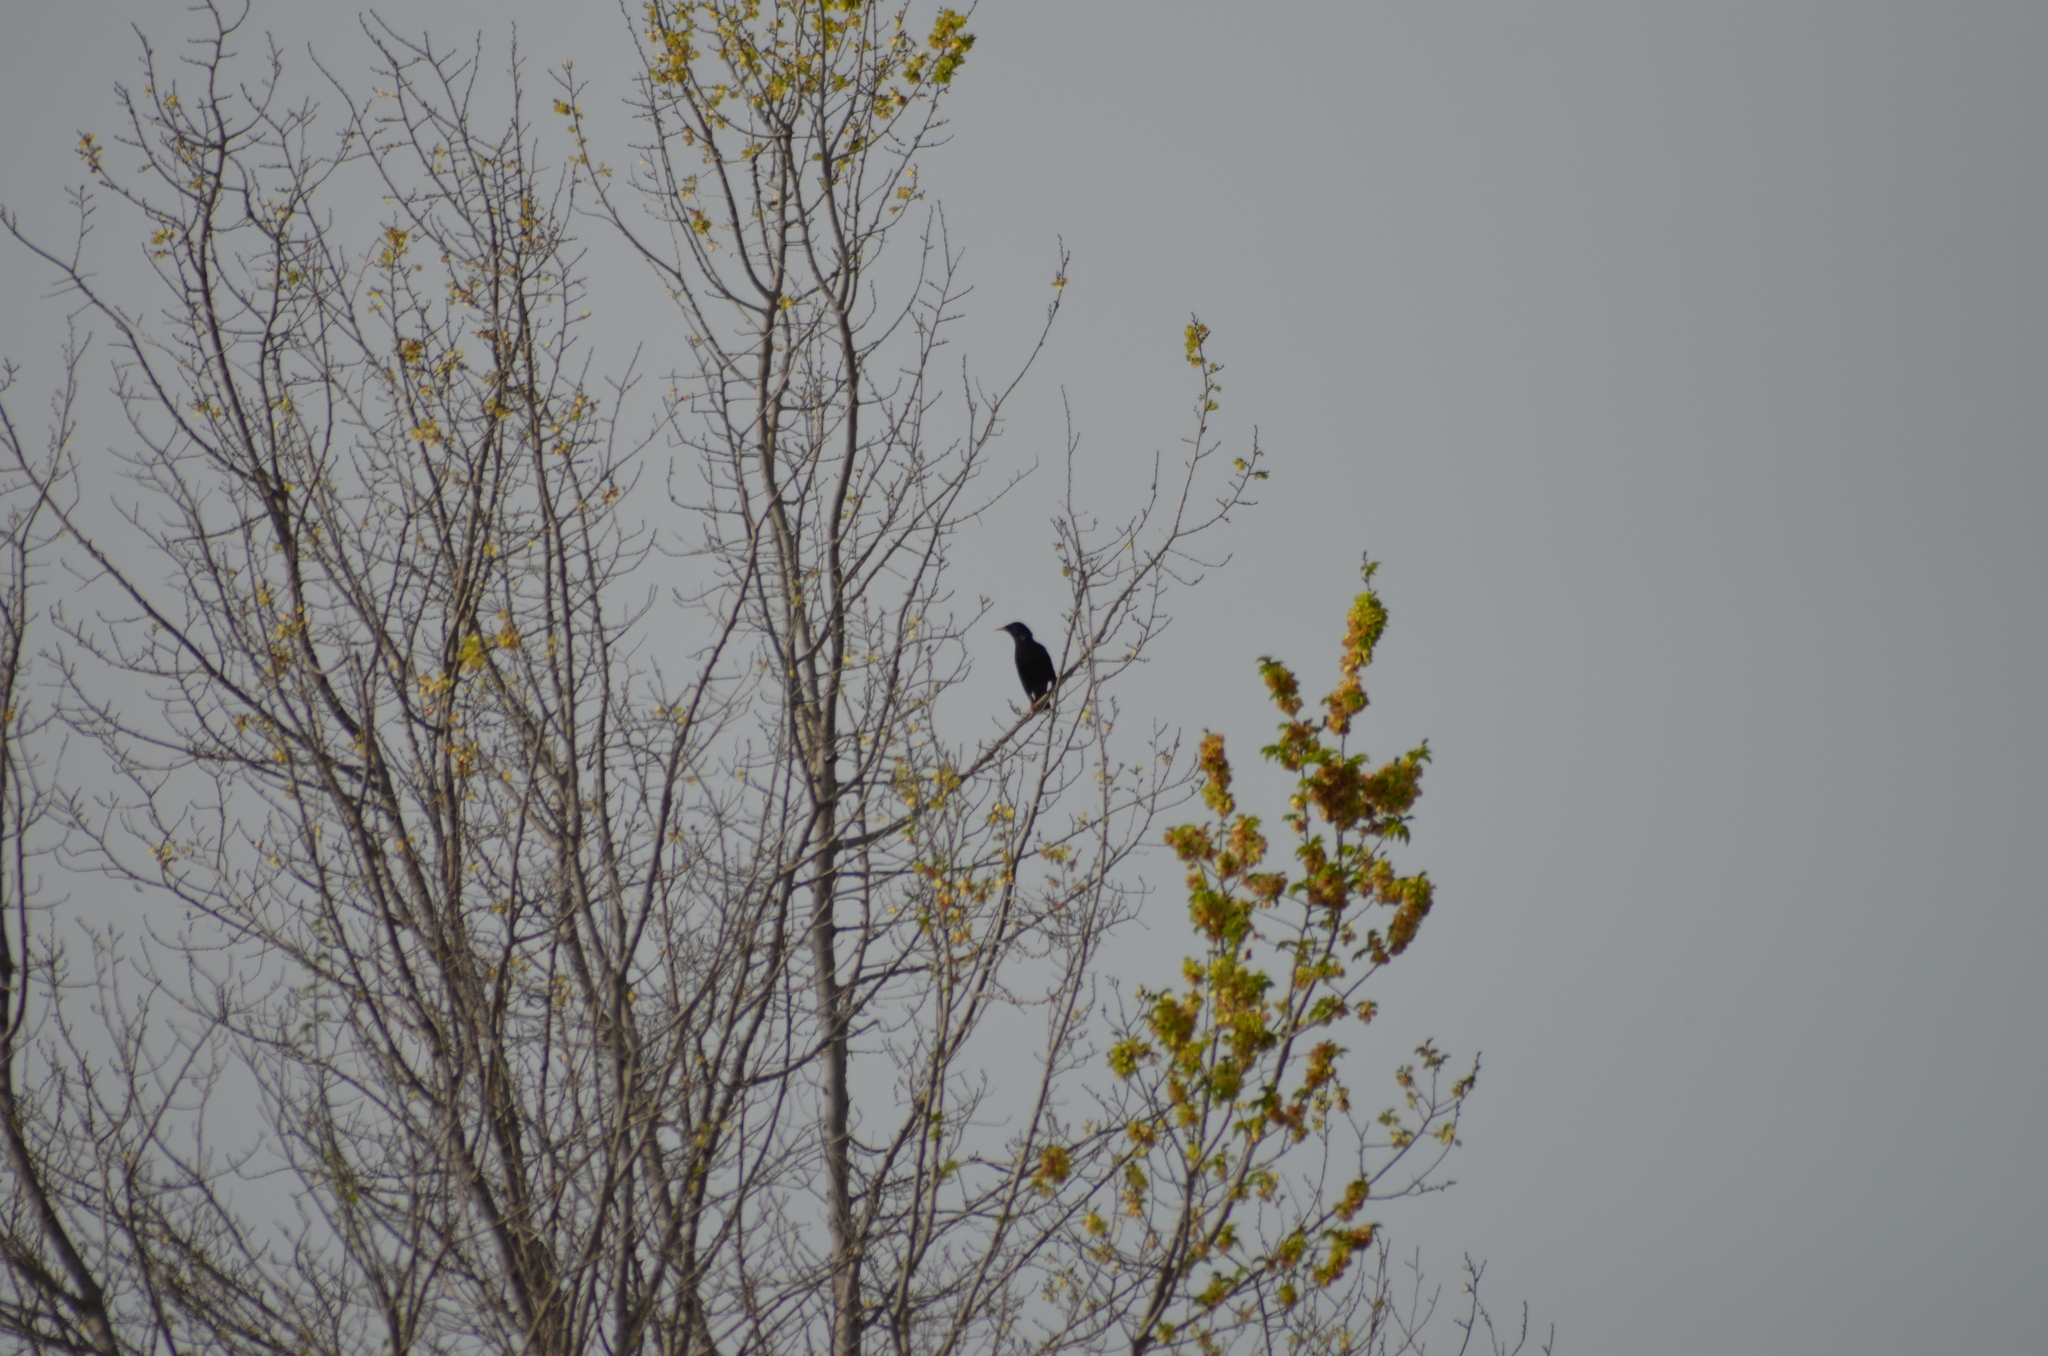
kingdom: Animalia
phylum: Chordata
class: Aves
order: Passeriformes
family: Sturnidae
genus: Sturnus
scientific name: Sturnus unicolor
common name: Spotless starling
